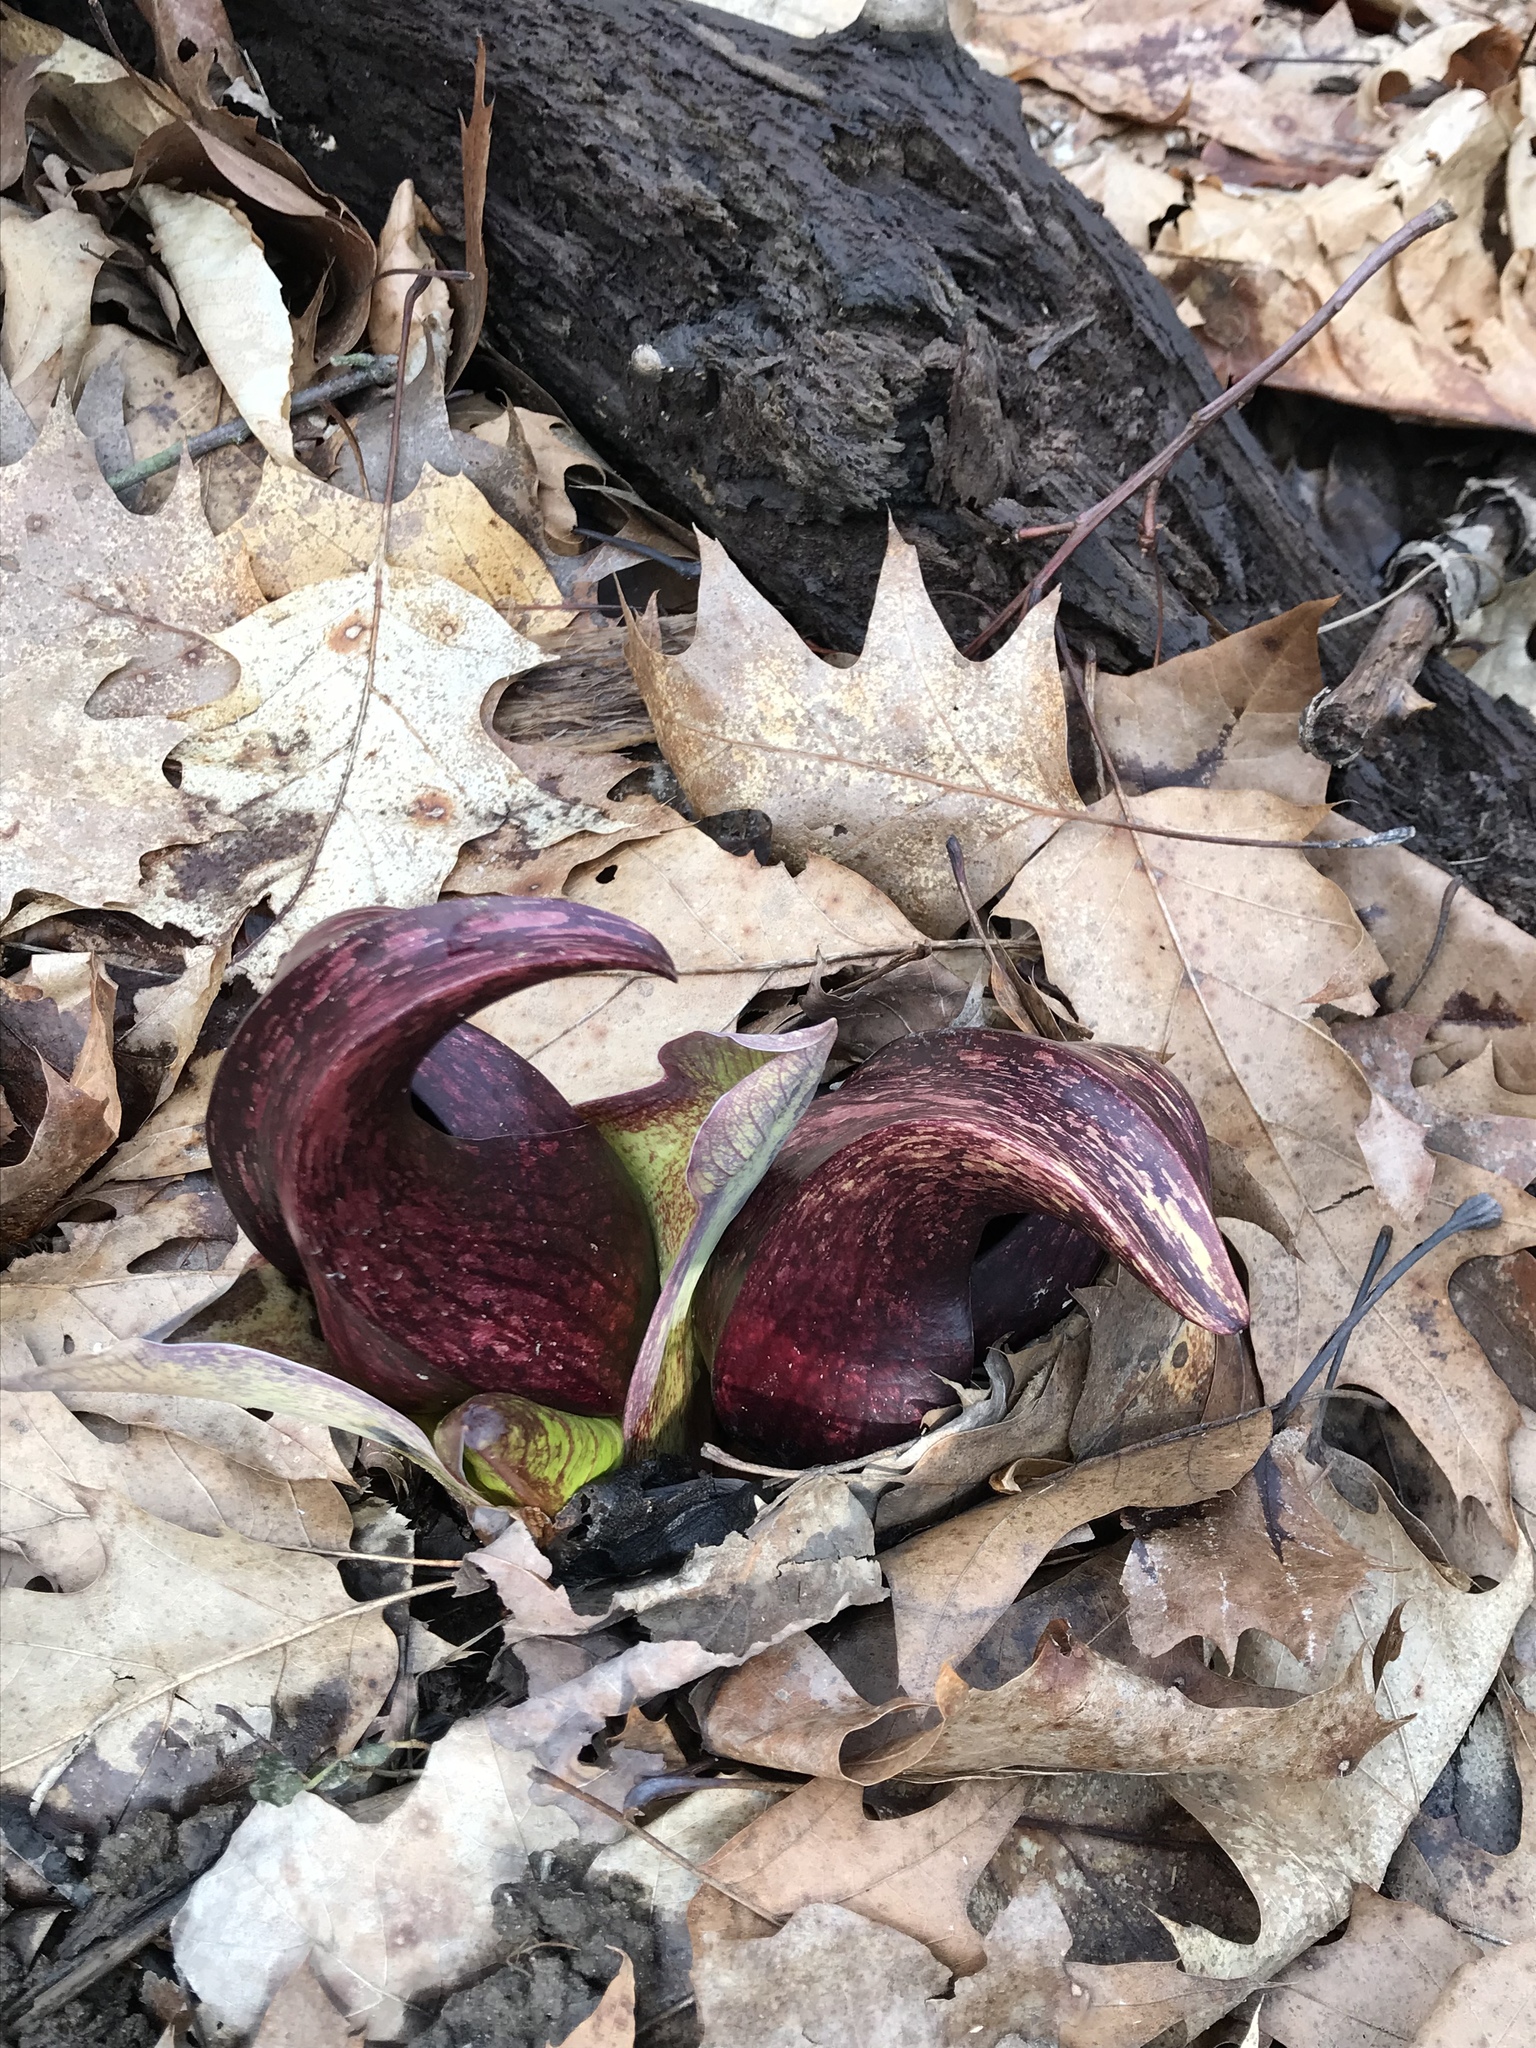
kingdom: Plantae
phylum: Tracheophyta
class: Liliopsida
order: Alismatales
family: Araceae
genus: Symplocarpus
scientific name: Symplocarpus foetidus
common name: Eastern skunk cabbage
